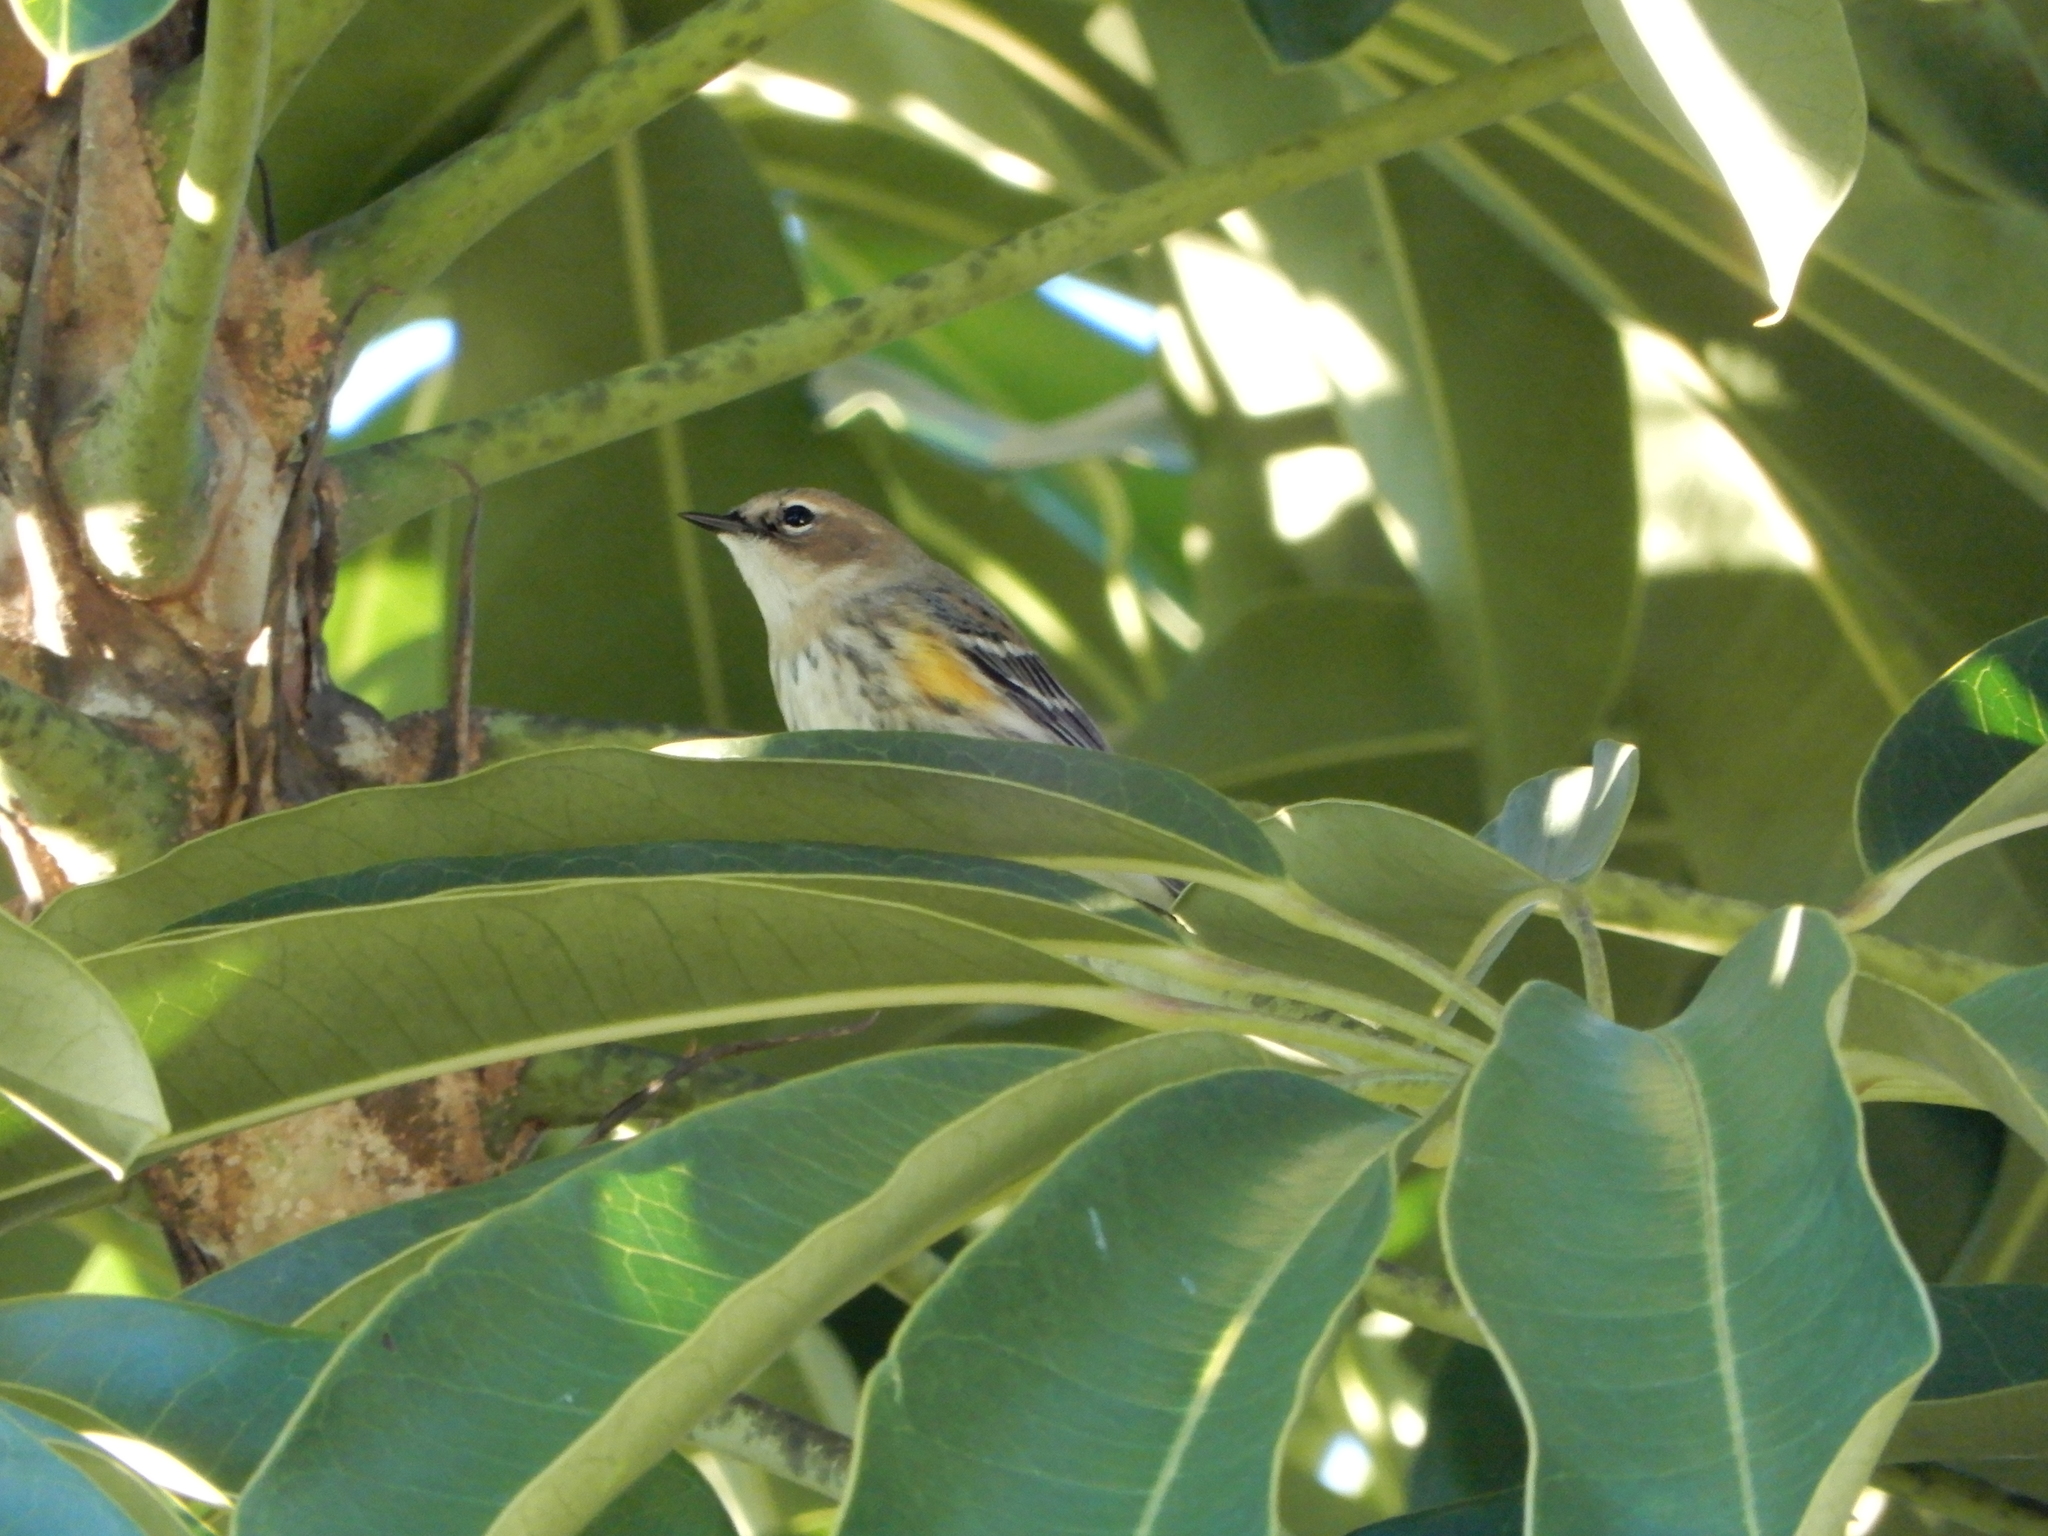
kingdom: Animalia
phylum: Chordata
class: Aves
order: Passeriformes
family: Parulidae
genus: Setophaga
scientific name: Setophaga coronata
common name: Myrtle warbler
